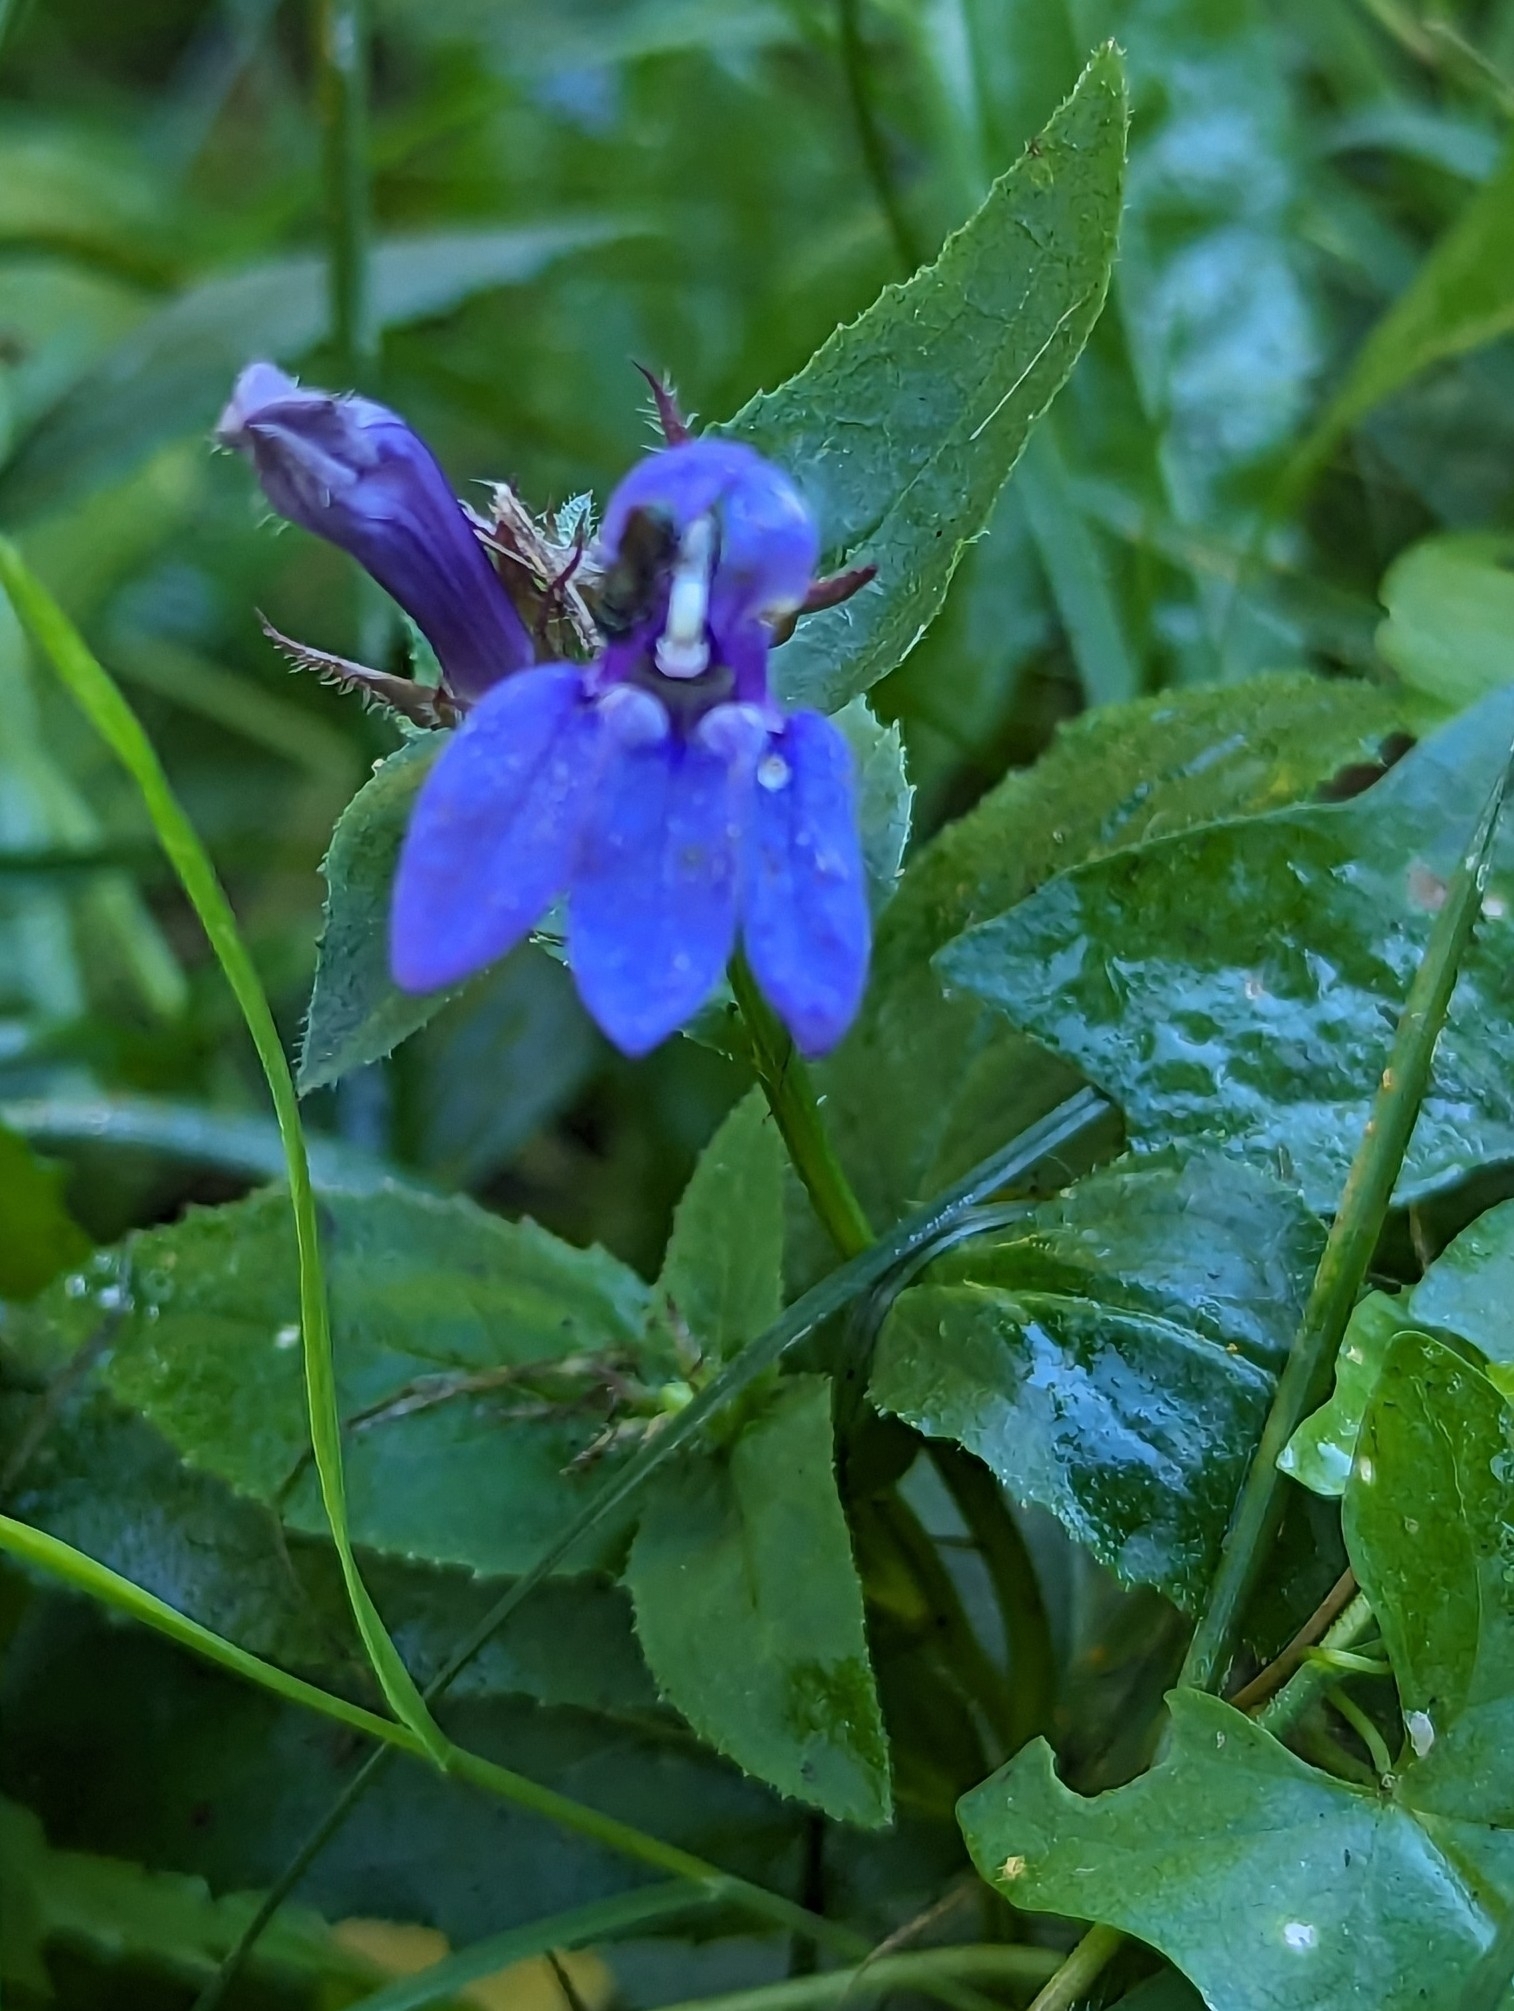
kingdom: Plantae
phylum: Tracheophyta
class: Magnoliopsida
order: Asterales
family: Campanulaceae
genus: Lobelia
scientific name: Lobelia siphilitica
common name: Great lobelia
